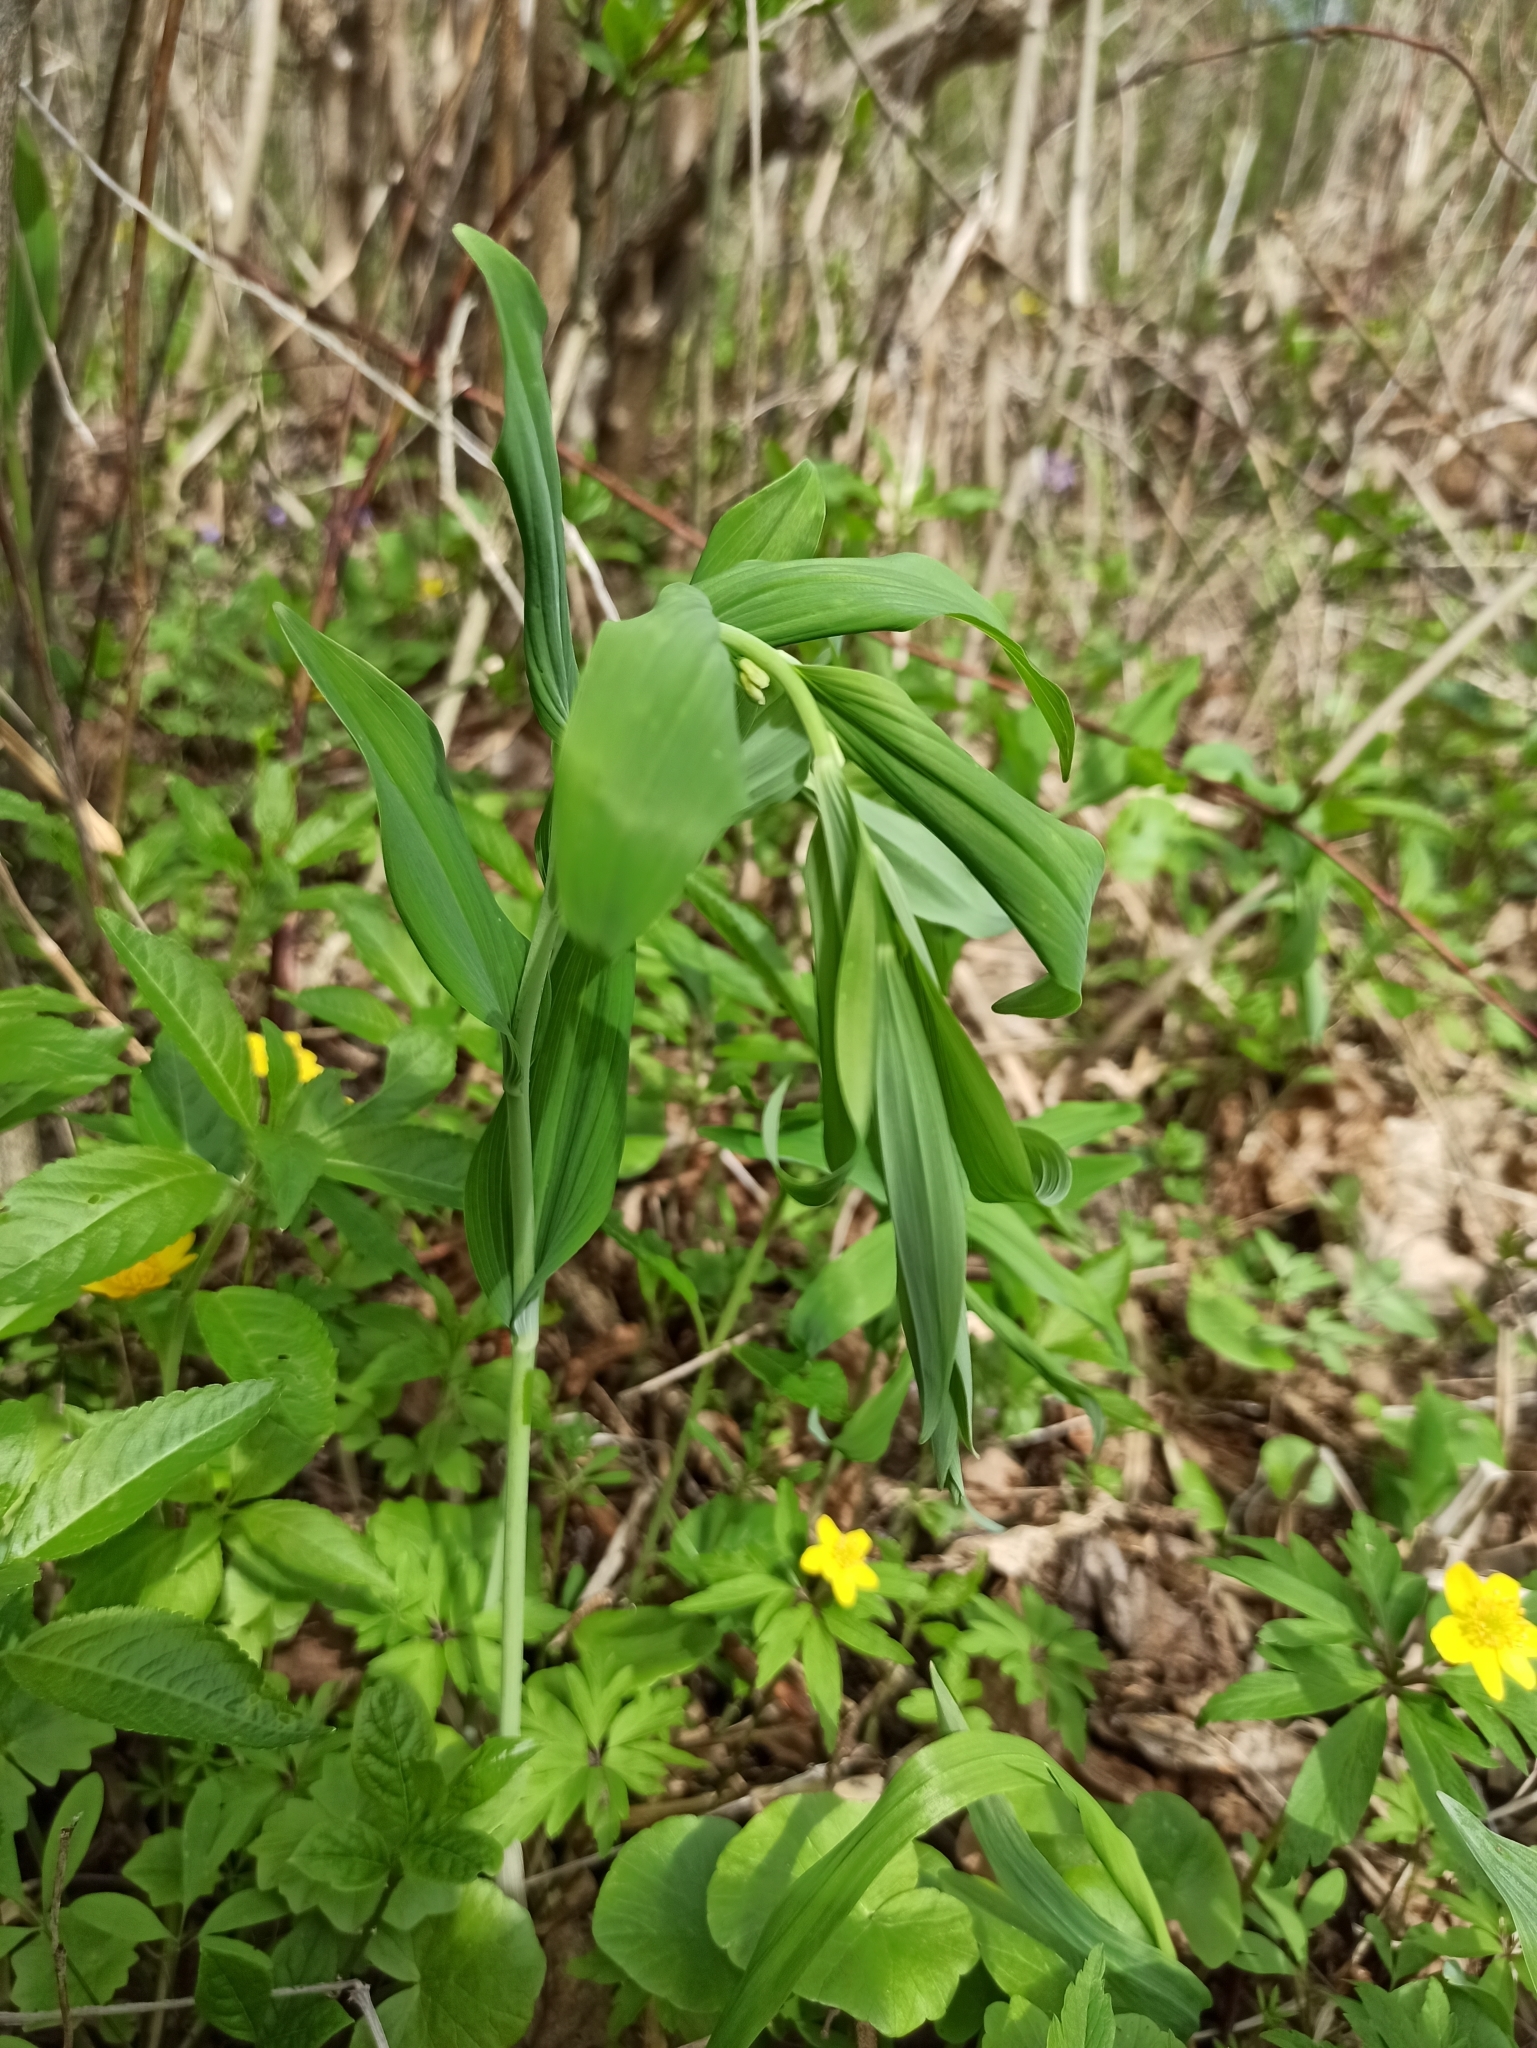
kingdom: Plantae
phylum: Tracheophyta
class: Liliopsida
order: Asparagales
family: Asparagaceae
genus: Polygonatum
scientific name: Polygonatum multiflorum
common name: Solomon's-seal
